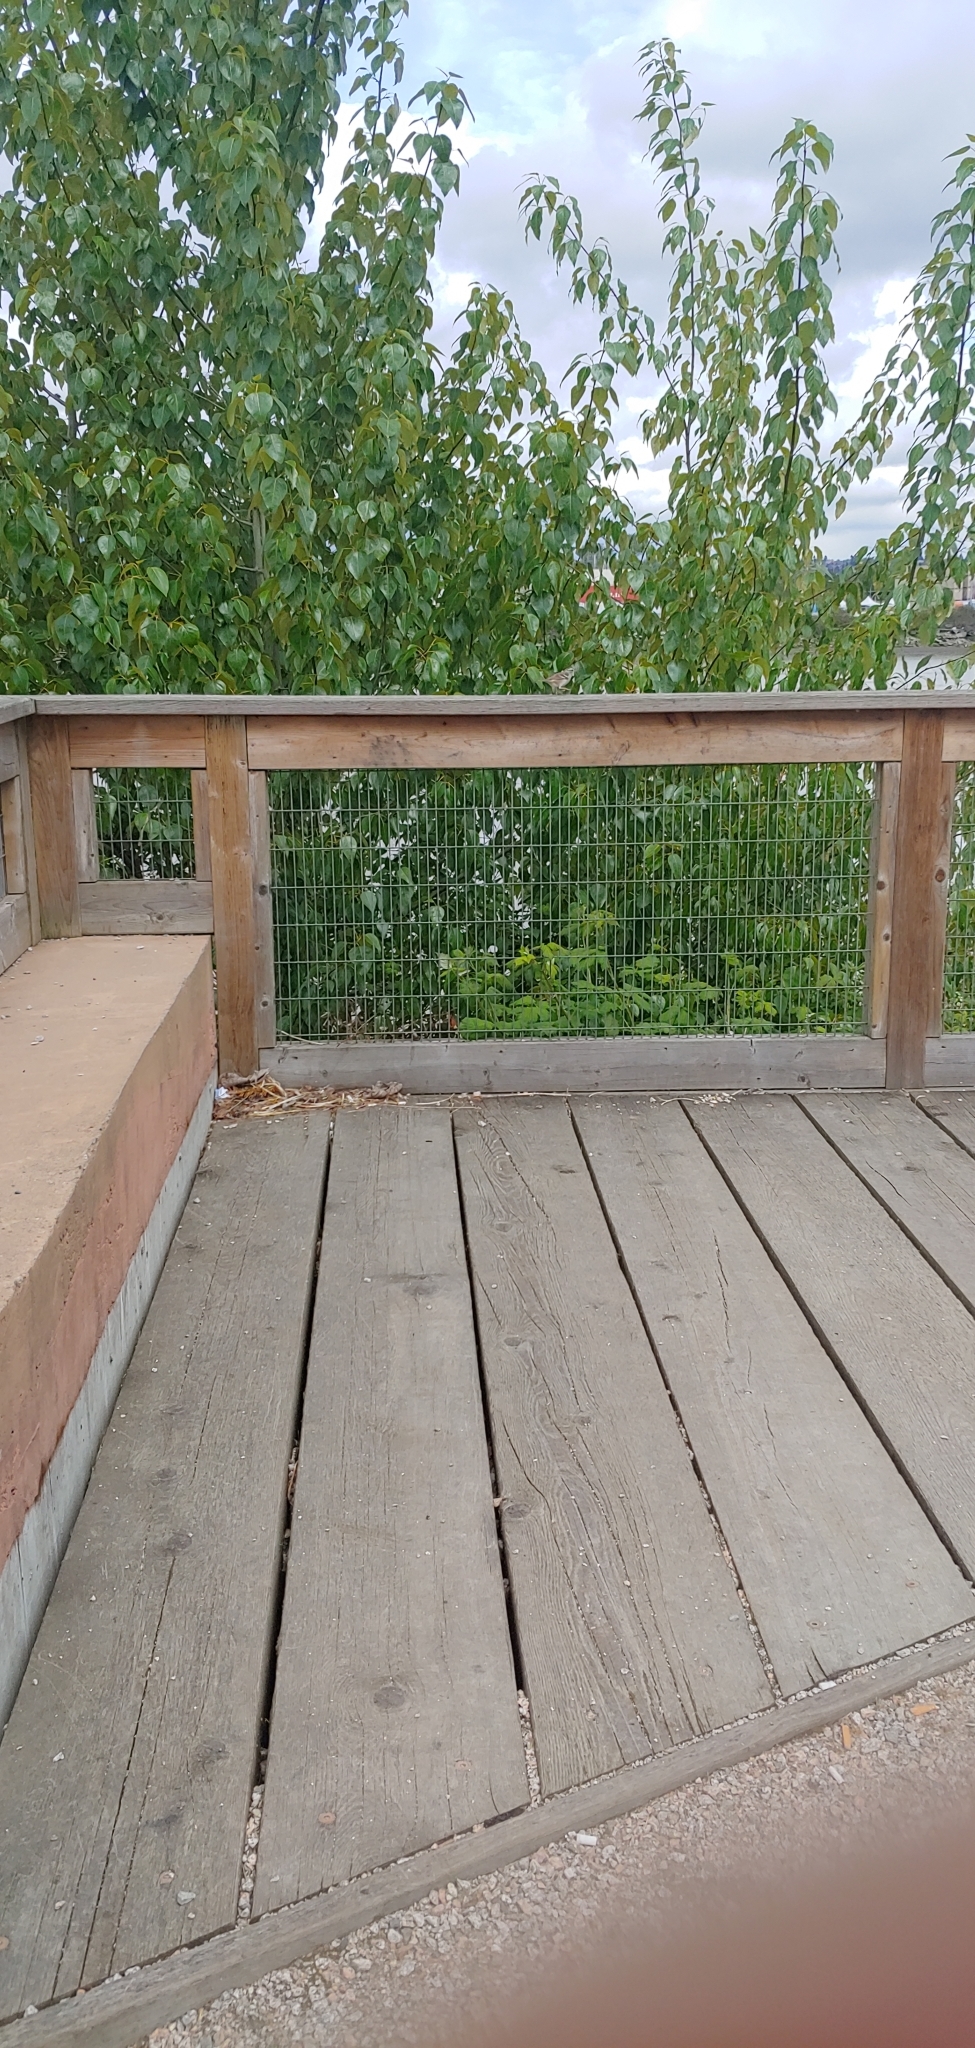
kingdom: Animalia
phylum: Chordata
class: Aves
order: Passeriformes
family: Passerellidae
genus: Zonotrichia
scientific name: Zonotrichia leucophrys
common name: White-crowned sparrow
